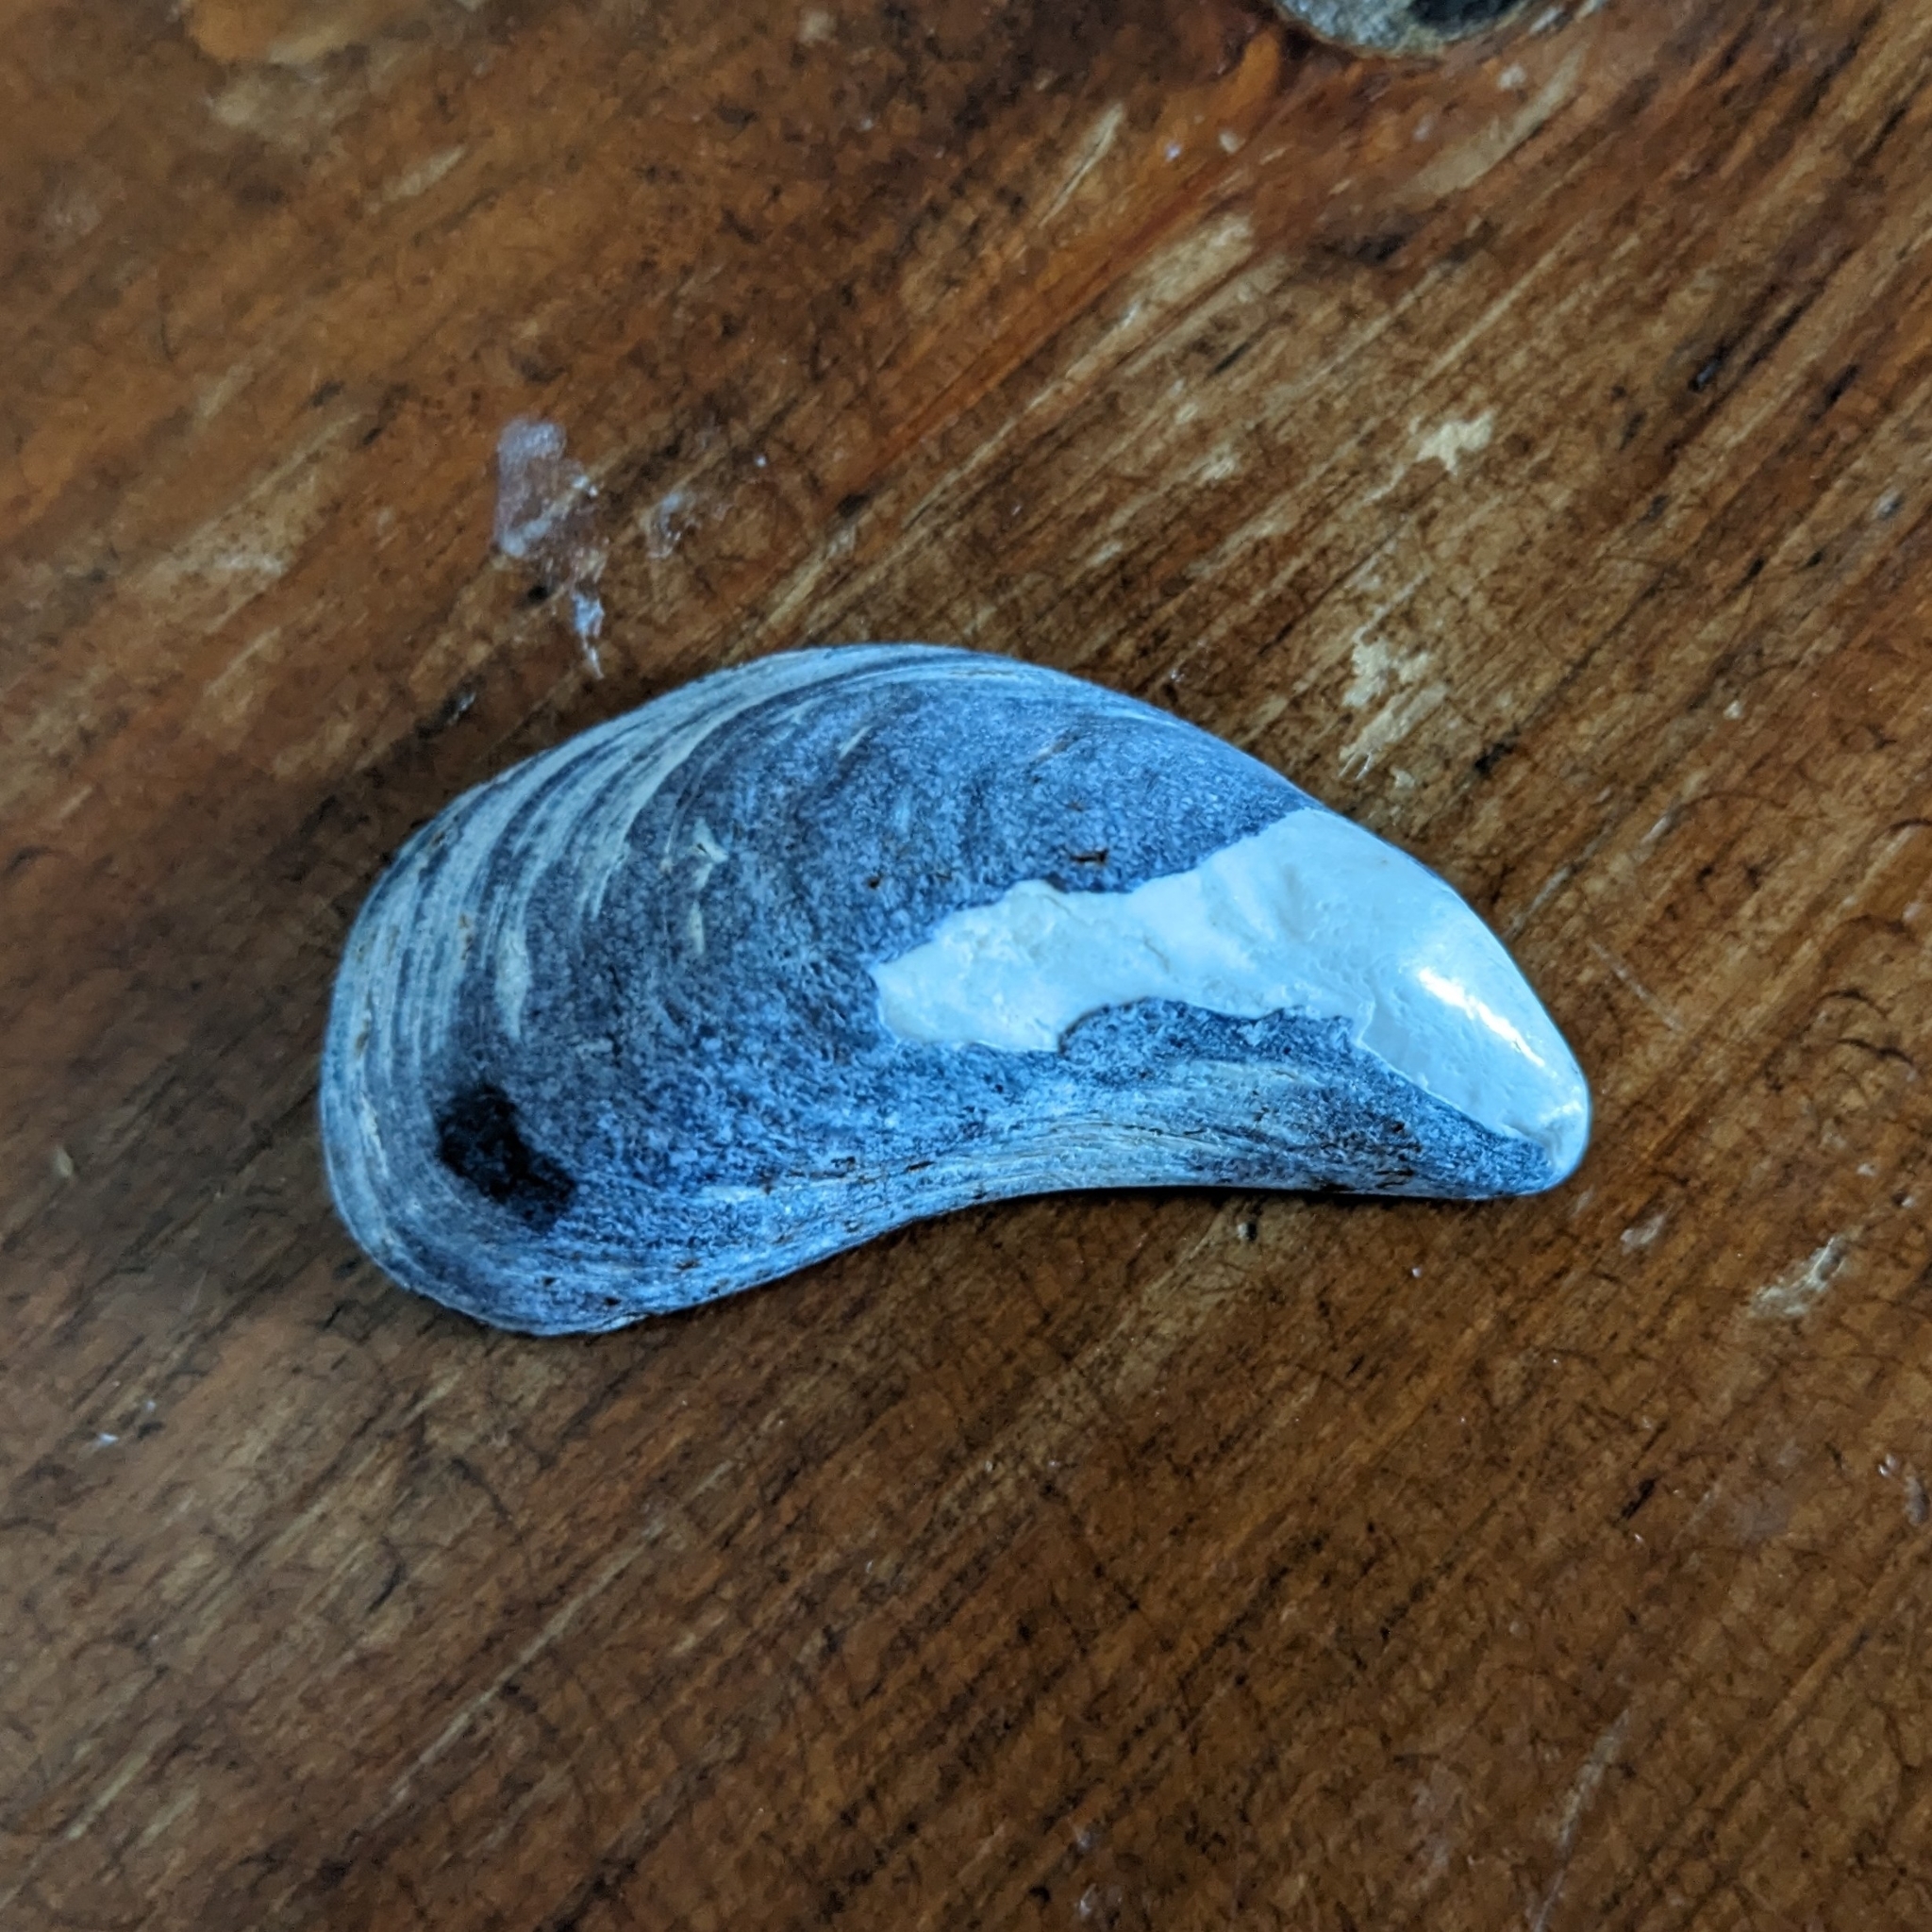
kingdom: Animalia
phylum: Mollusca
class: Bivalvia
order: Mytilida
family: Mytilidae
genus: Mytilus
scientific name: Mytilus
